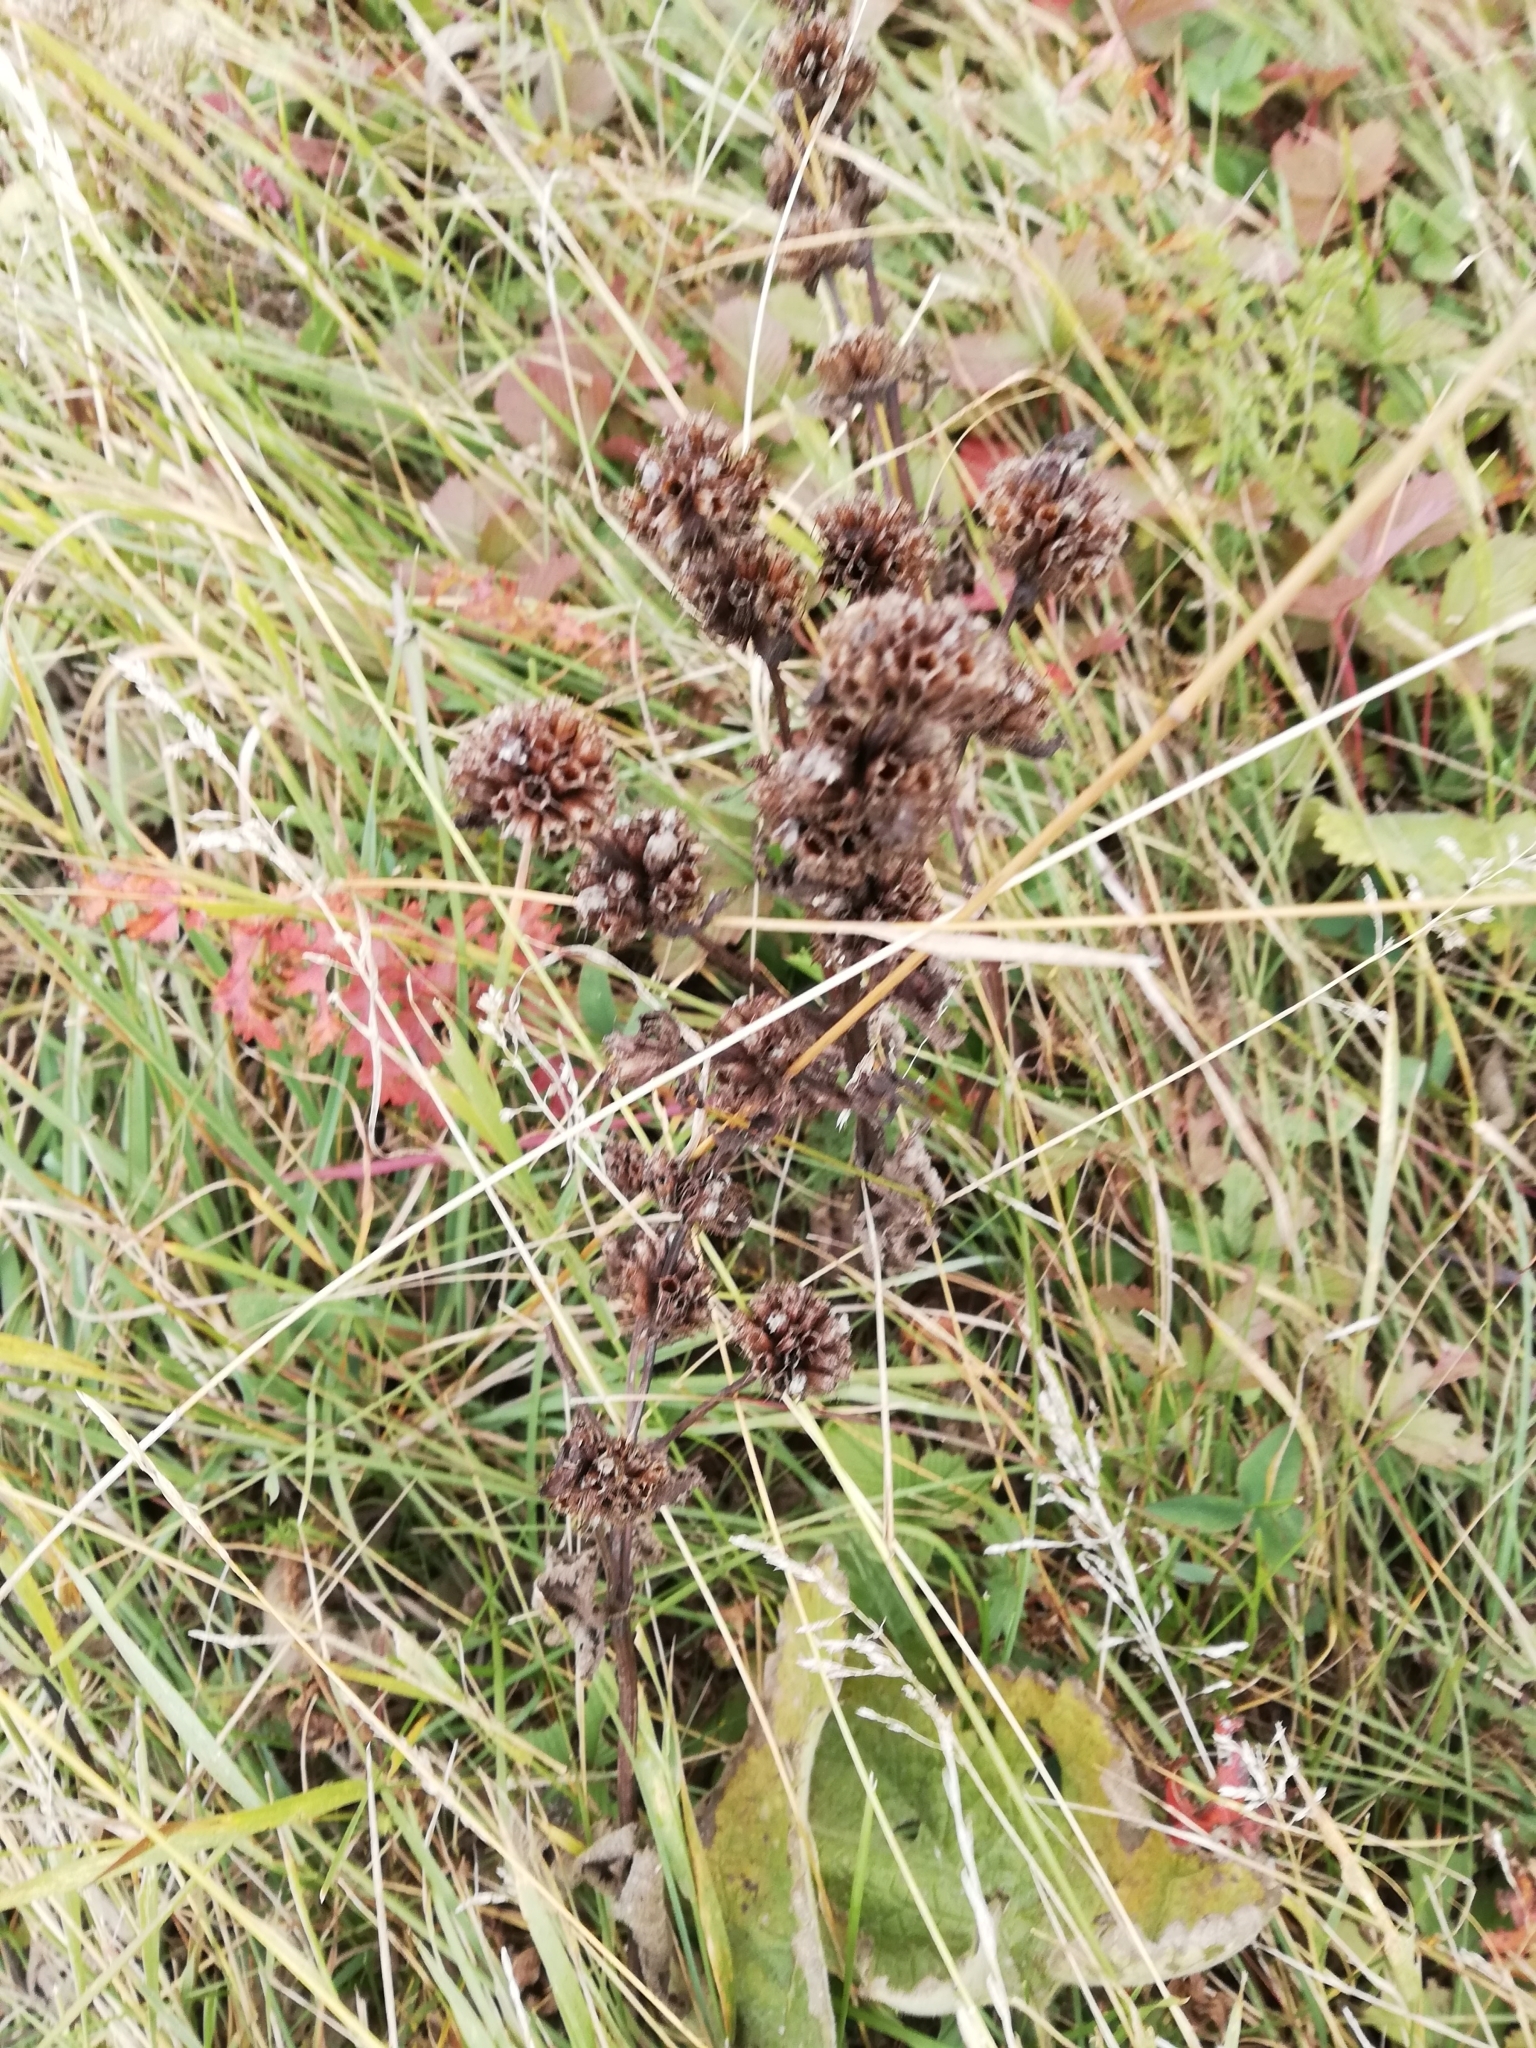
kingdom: Plantae
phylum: Tracheophyta
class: Magnoliopsida
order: Lamiales
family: Lamiaceae
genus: Phlomoides
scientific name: Phlomoides tuberosa
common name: Tuberous jerusalem sage
